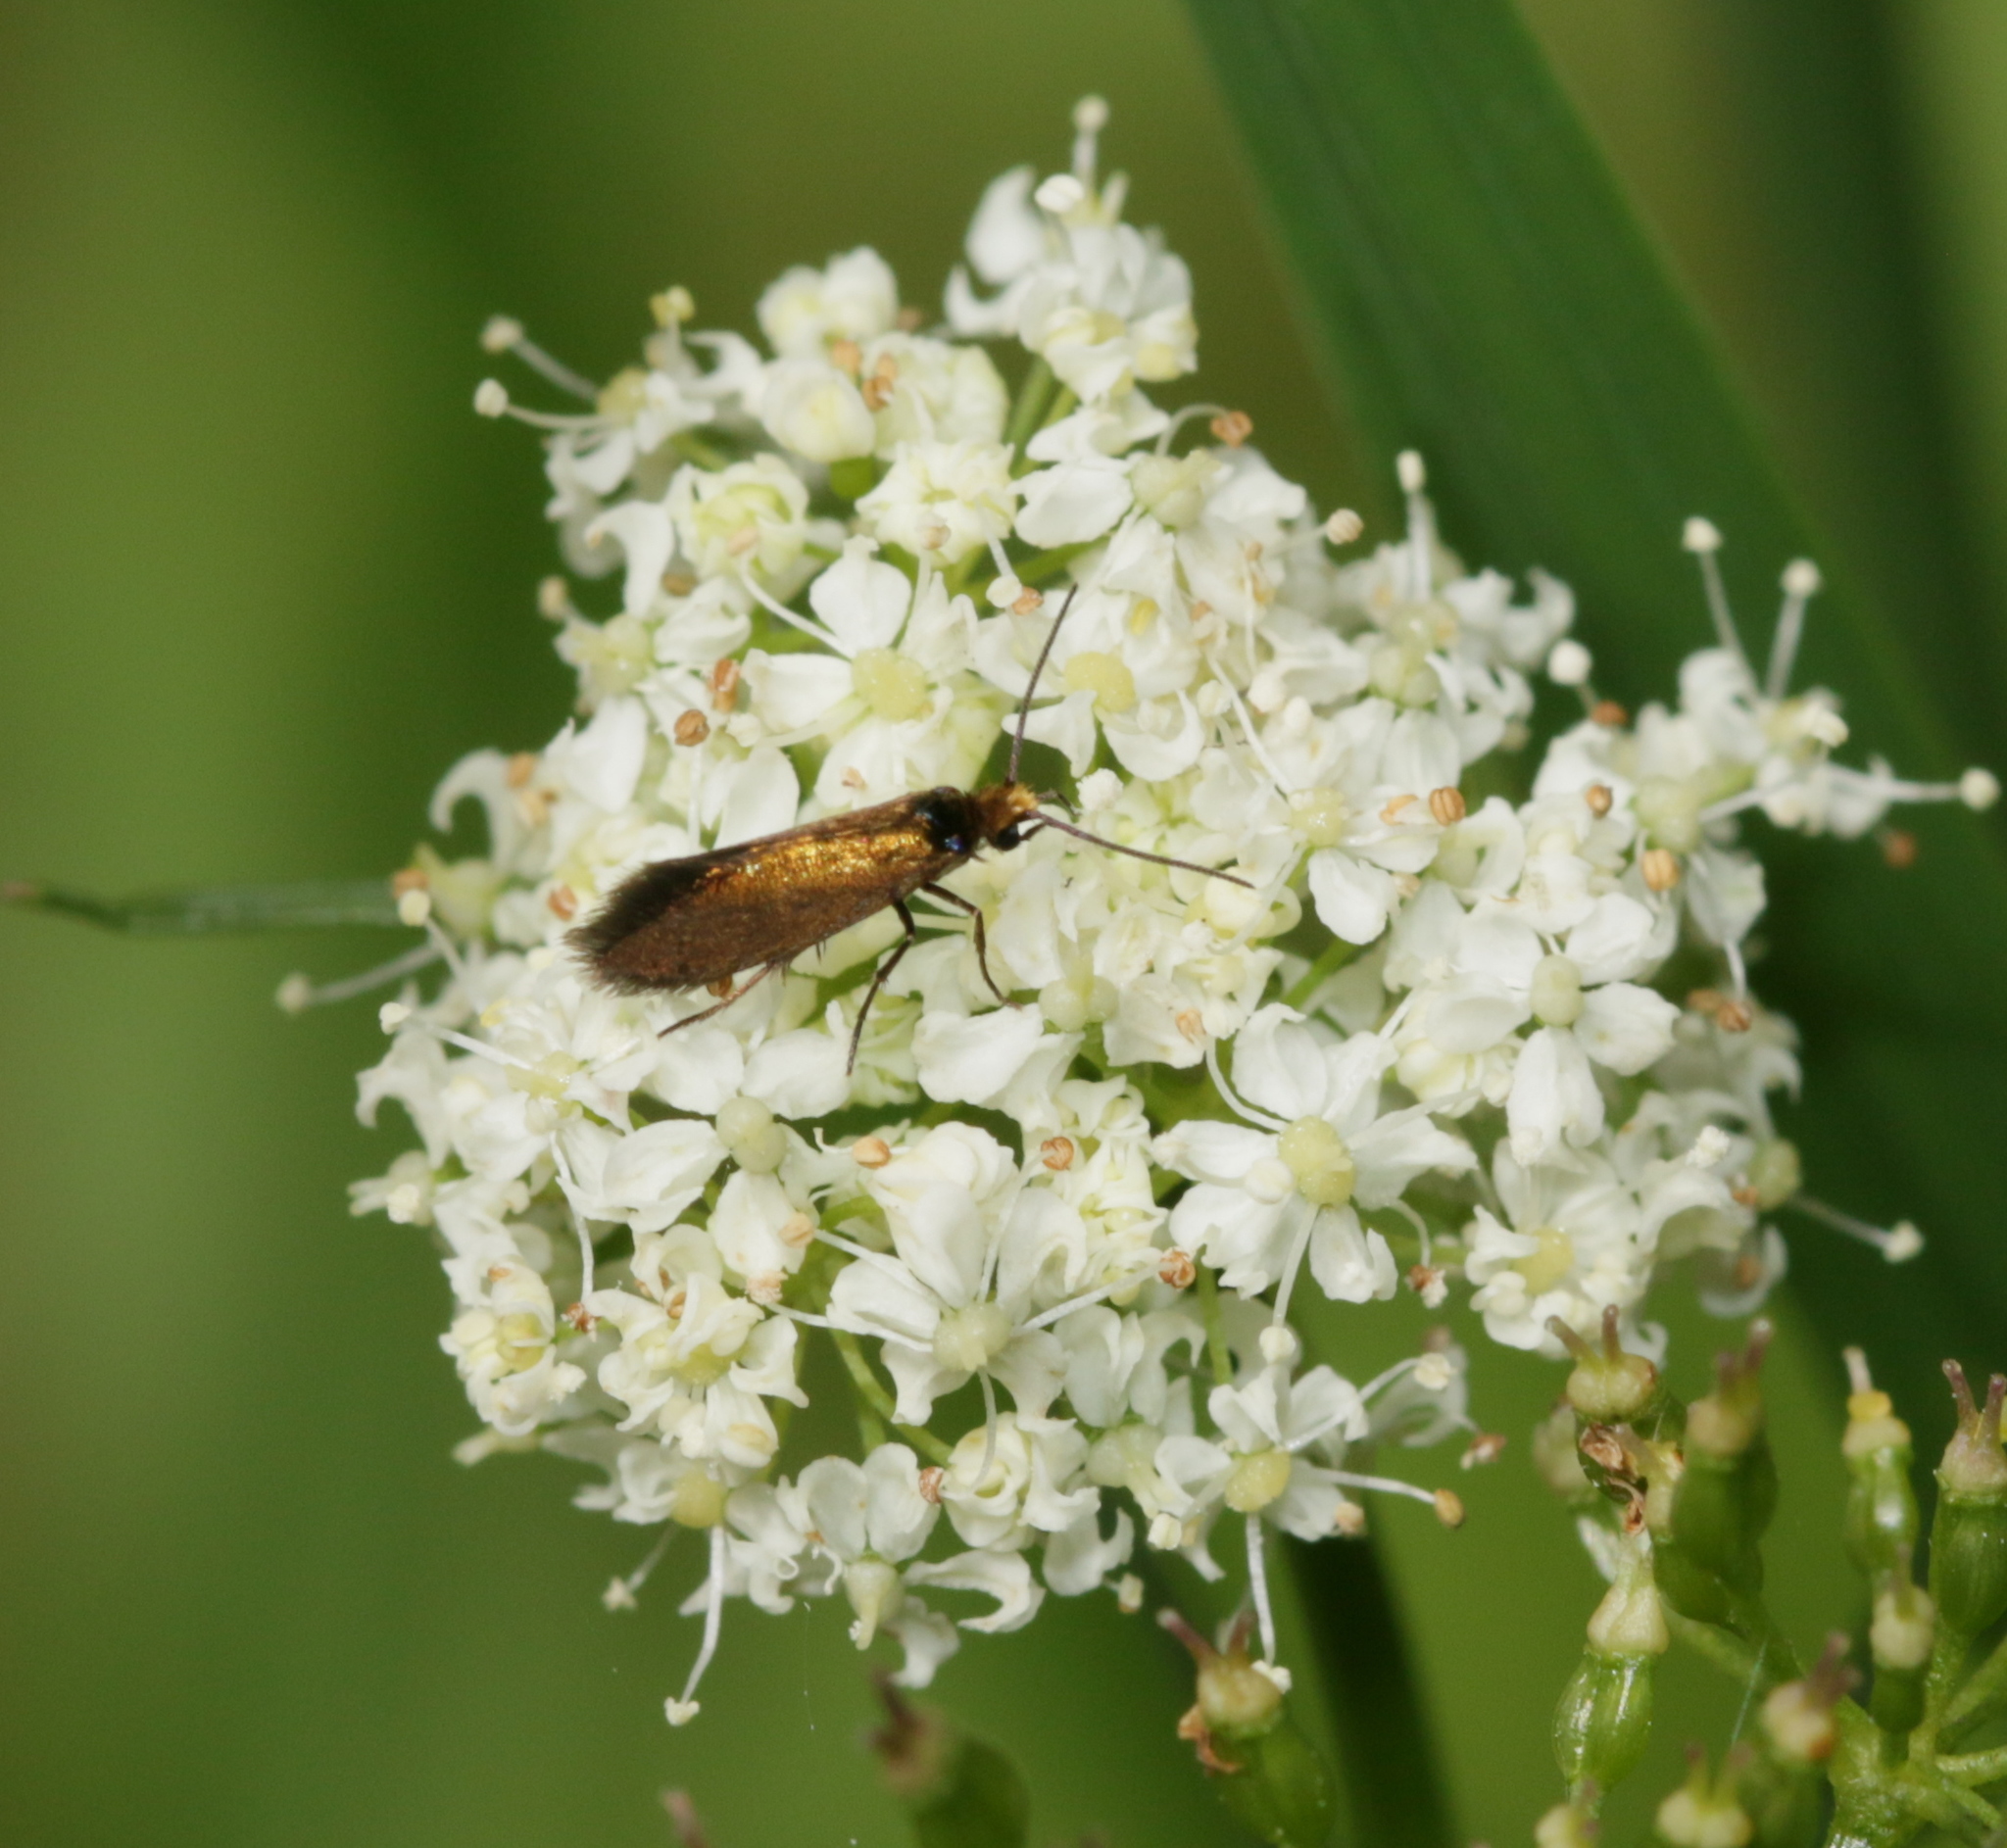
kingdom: Animalia
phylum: Arthropoda
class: Insecta
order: Lepidoptera
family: Micropterigidae
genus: Micropterix
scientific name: Micropterix aruncella
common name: White-barred gold
